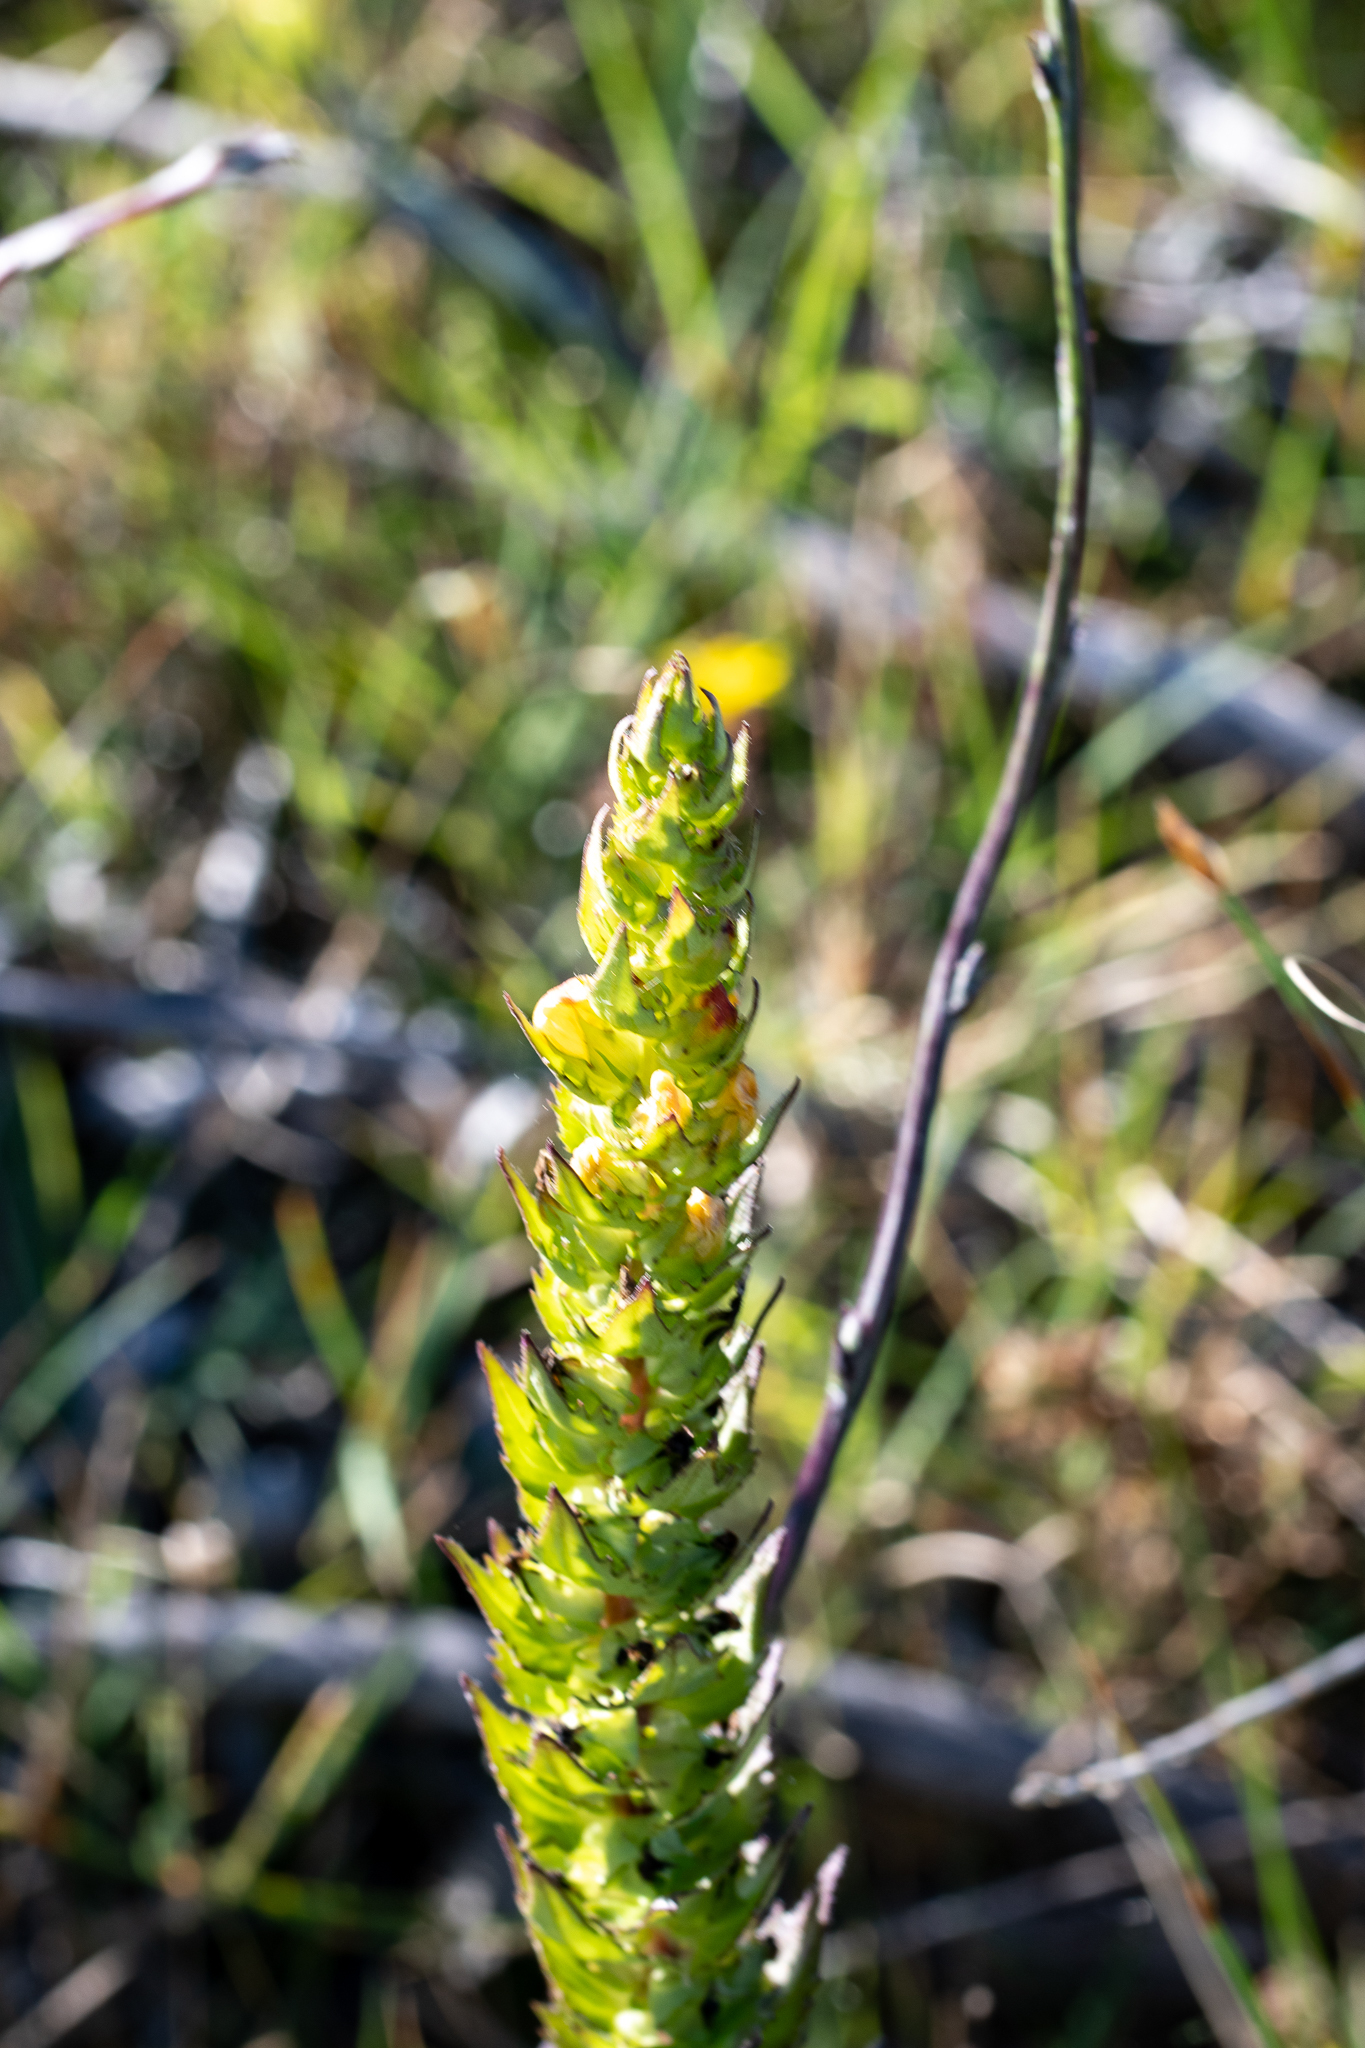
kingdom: Plantae
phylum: Tracheophyta
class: Magnoliopsida
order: Lamiales
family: Orobanchaceae
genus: Alectra
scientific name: Alectra sessiliflora
